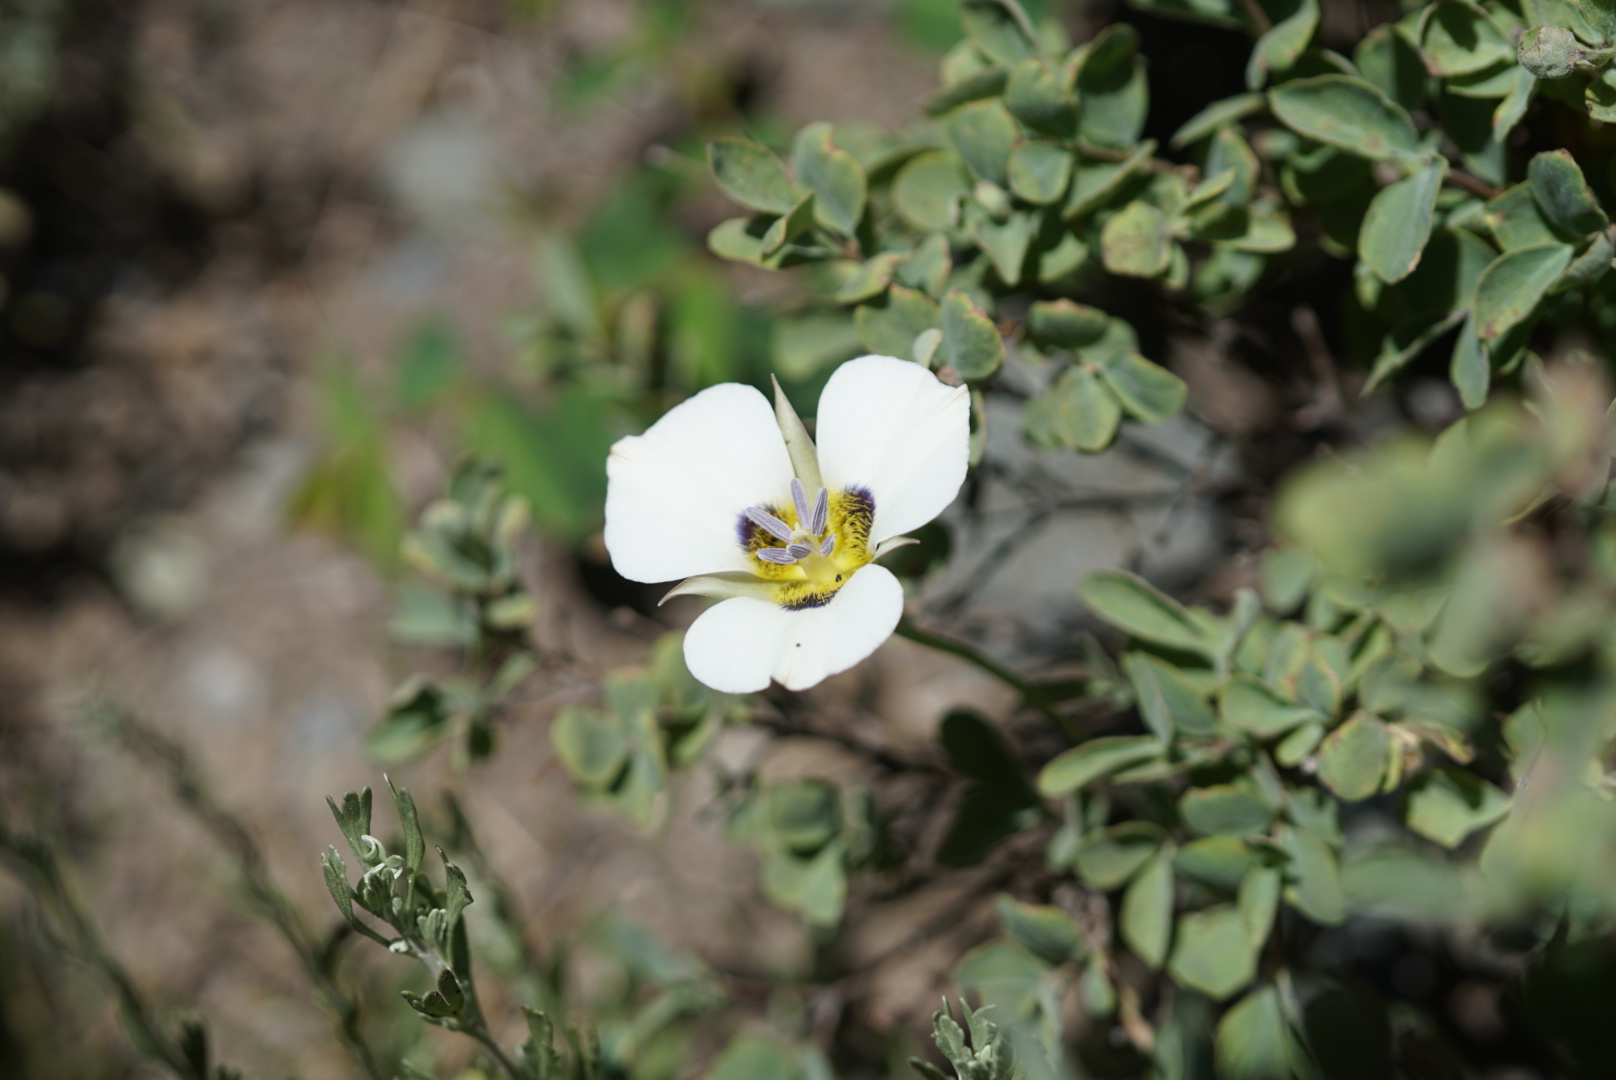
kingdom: Plantae
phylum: Tracheophyta
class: Liliopsida
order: Liliales
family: Liliaceae
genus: Calochortus
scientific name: Calochortus leichtlinii
